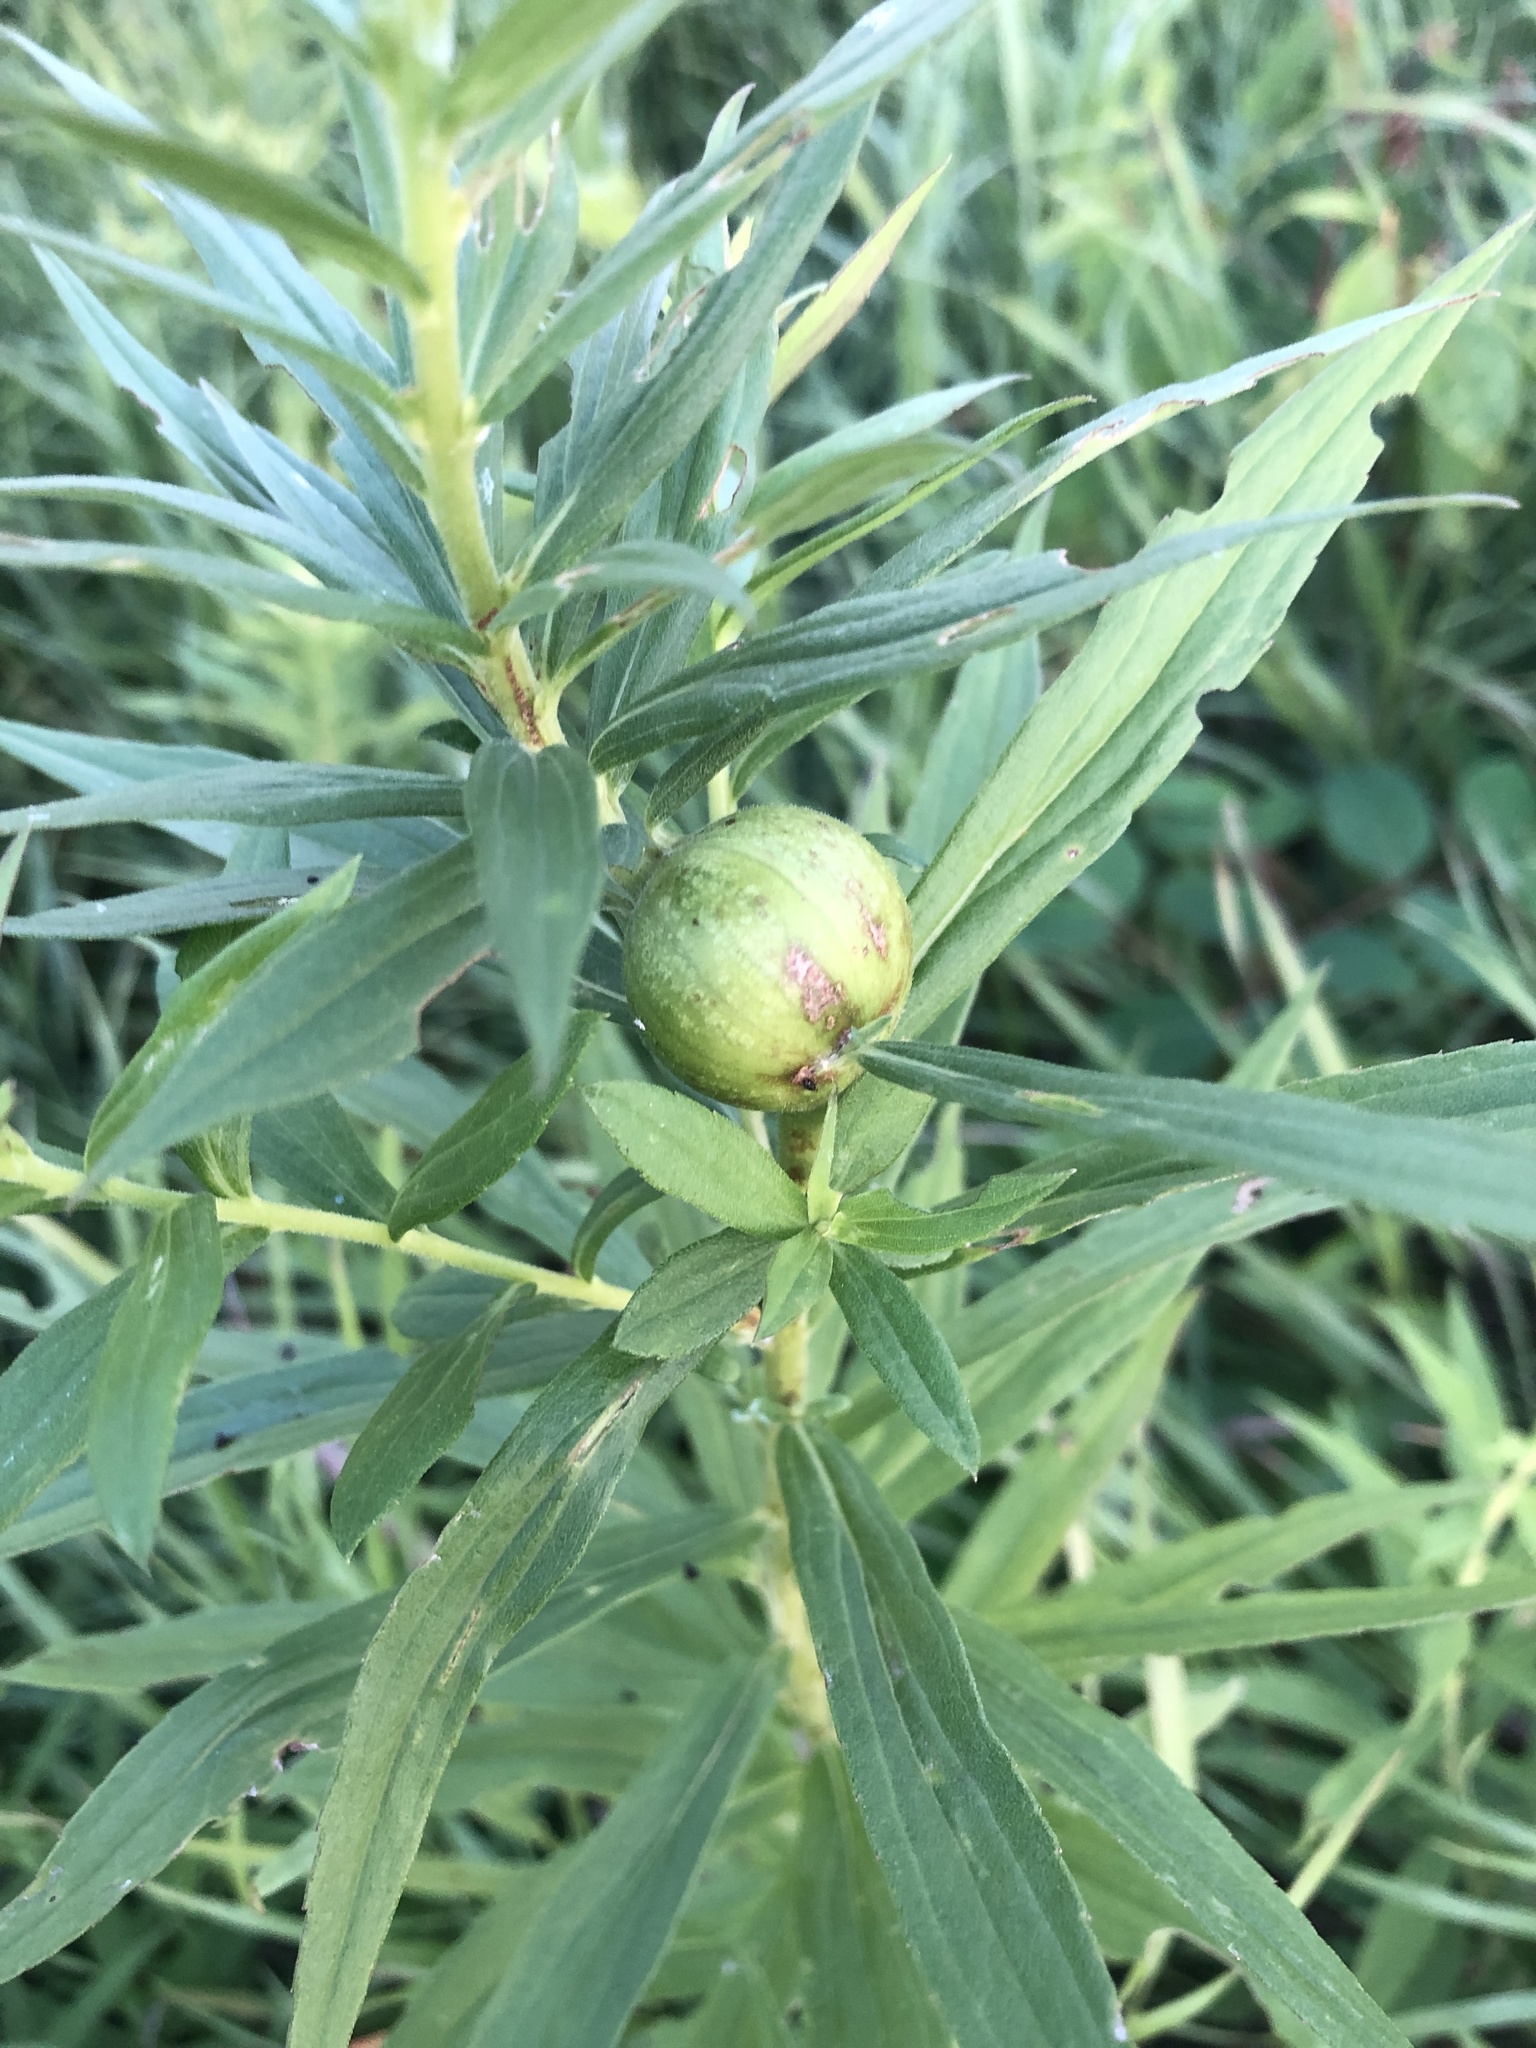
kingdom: Animalia
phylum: Arthropoda
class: Insecta
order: Diptera
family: Tephritidae
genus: Eurosta
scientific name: Eurosta solidaginis
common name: Goldenrod gall fly
